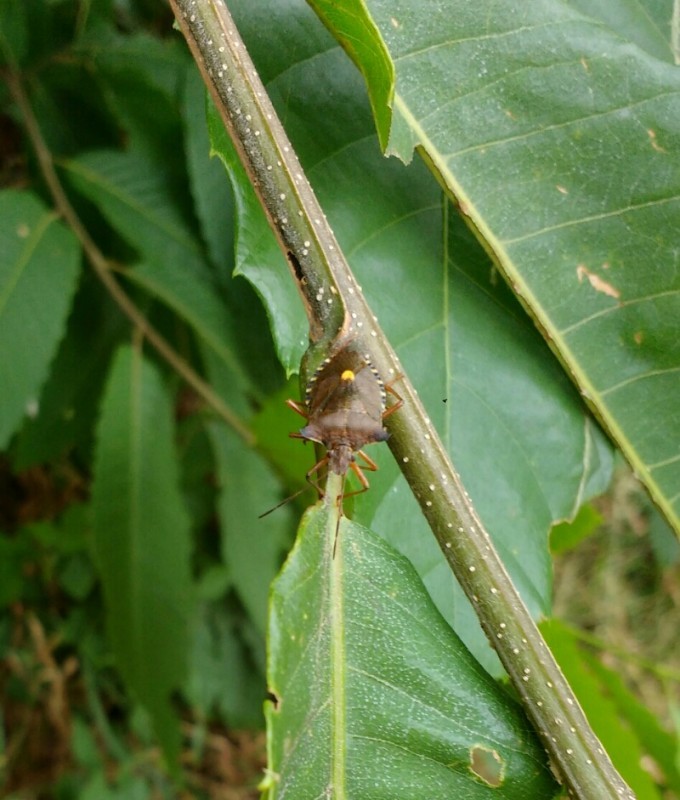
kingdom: Animalia
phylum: Arthropoda
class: Insecta
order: Hemiptera
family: Pentatomidae
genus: Pentatoma
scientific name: Pentatoma rufipes
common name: Forest bug
